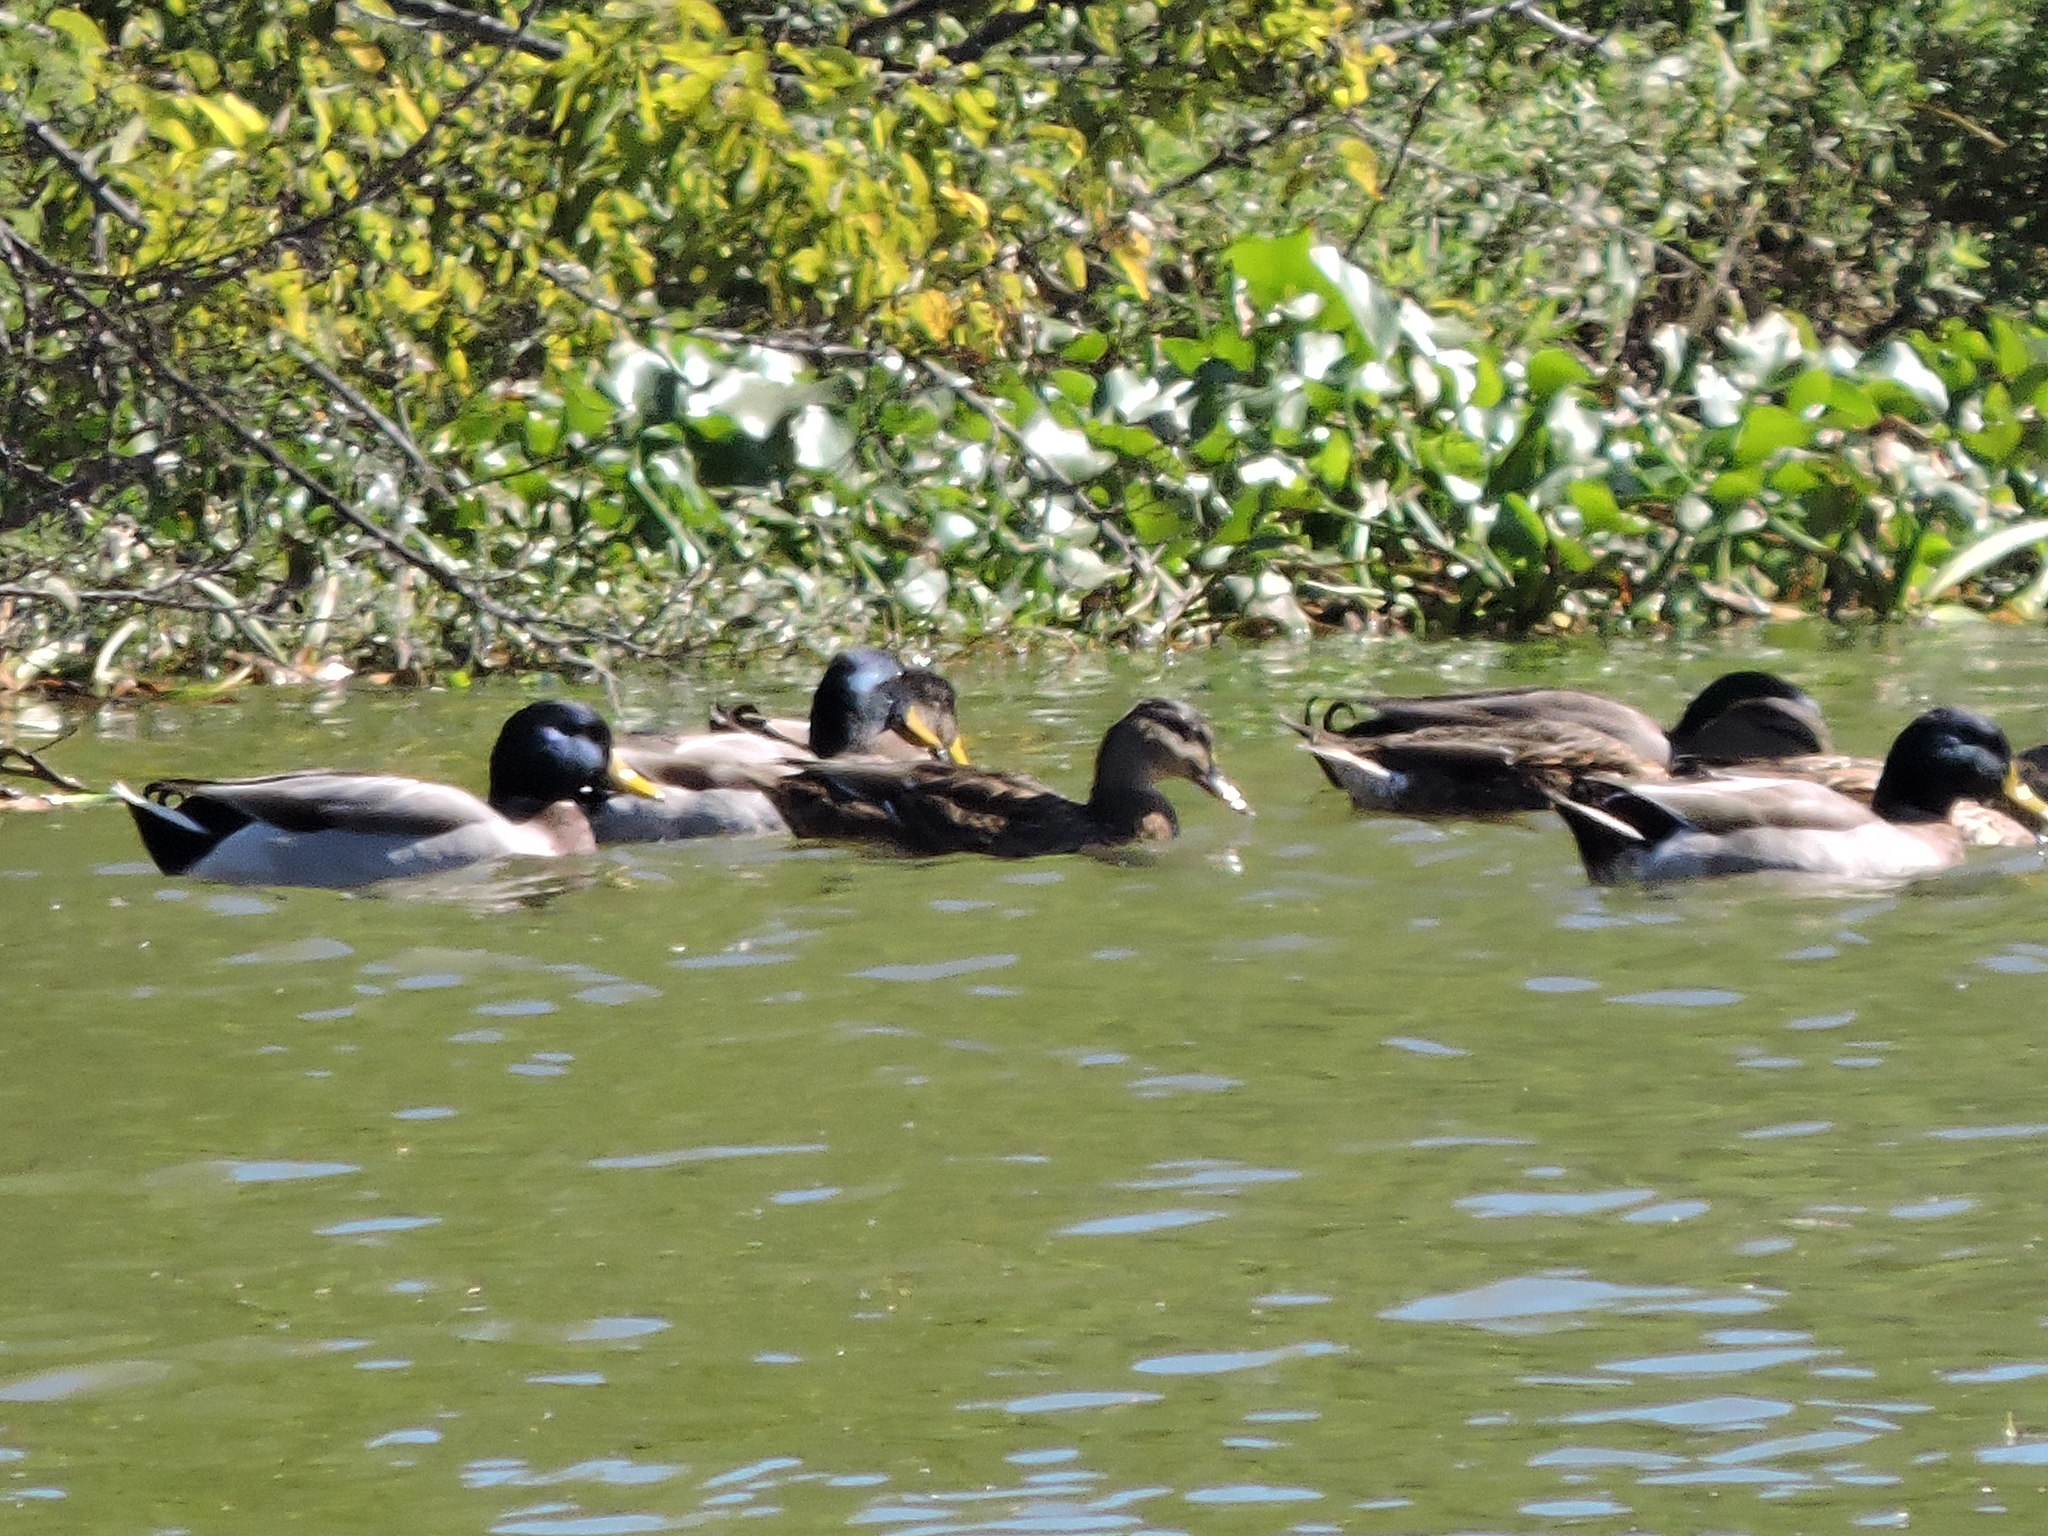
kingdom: Animalia
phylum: Chordata
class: Aves
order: Anseriformes
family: Anatidae
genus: Anas
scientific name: Anas platyrhynchos
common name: Mallard
